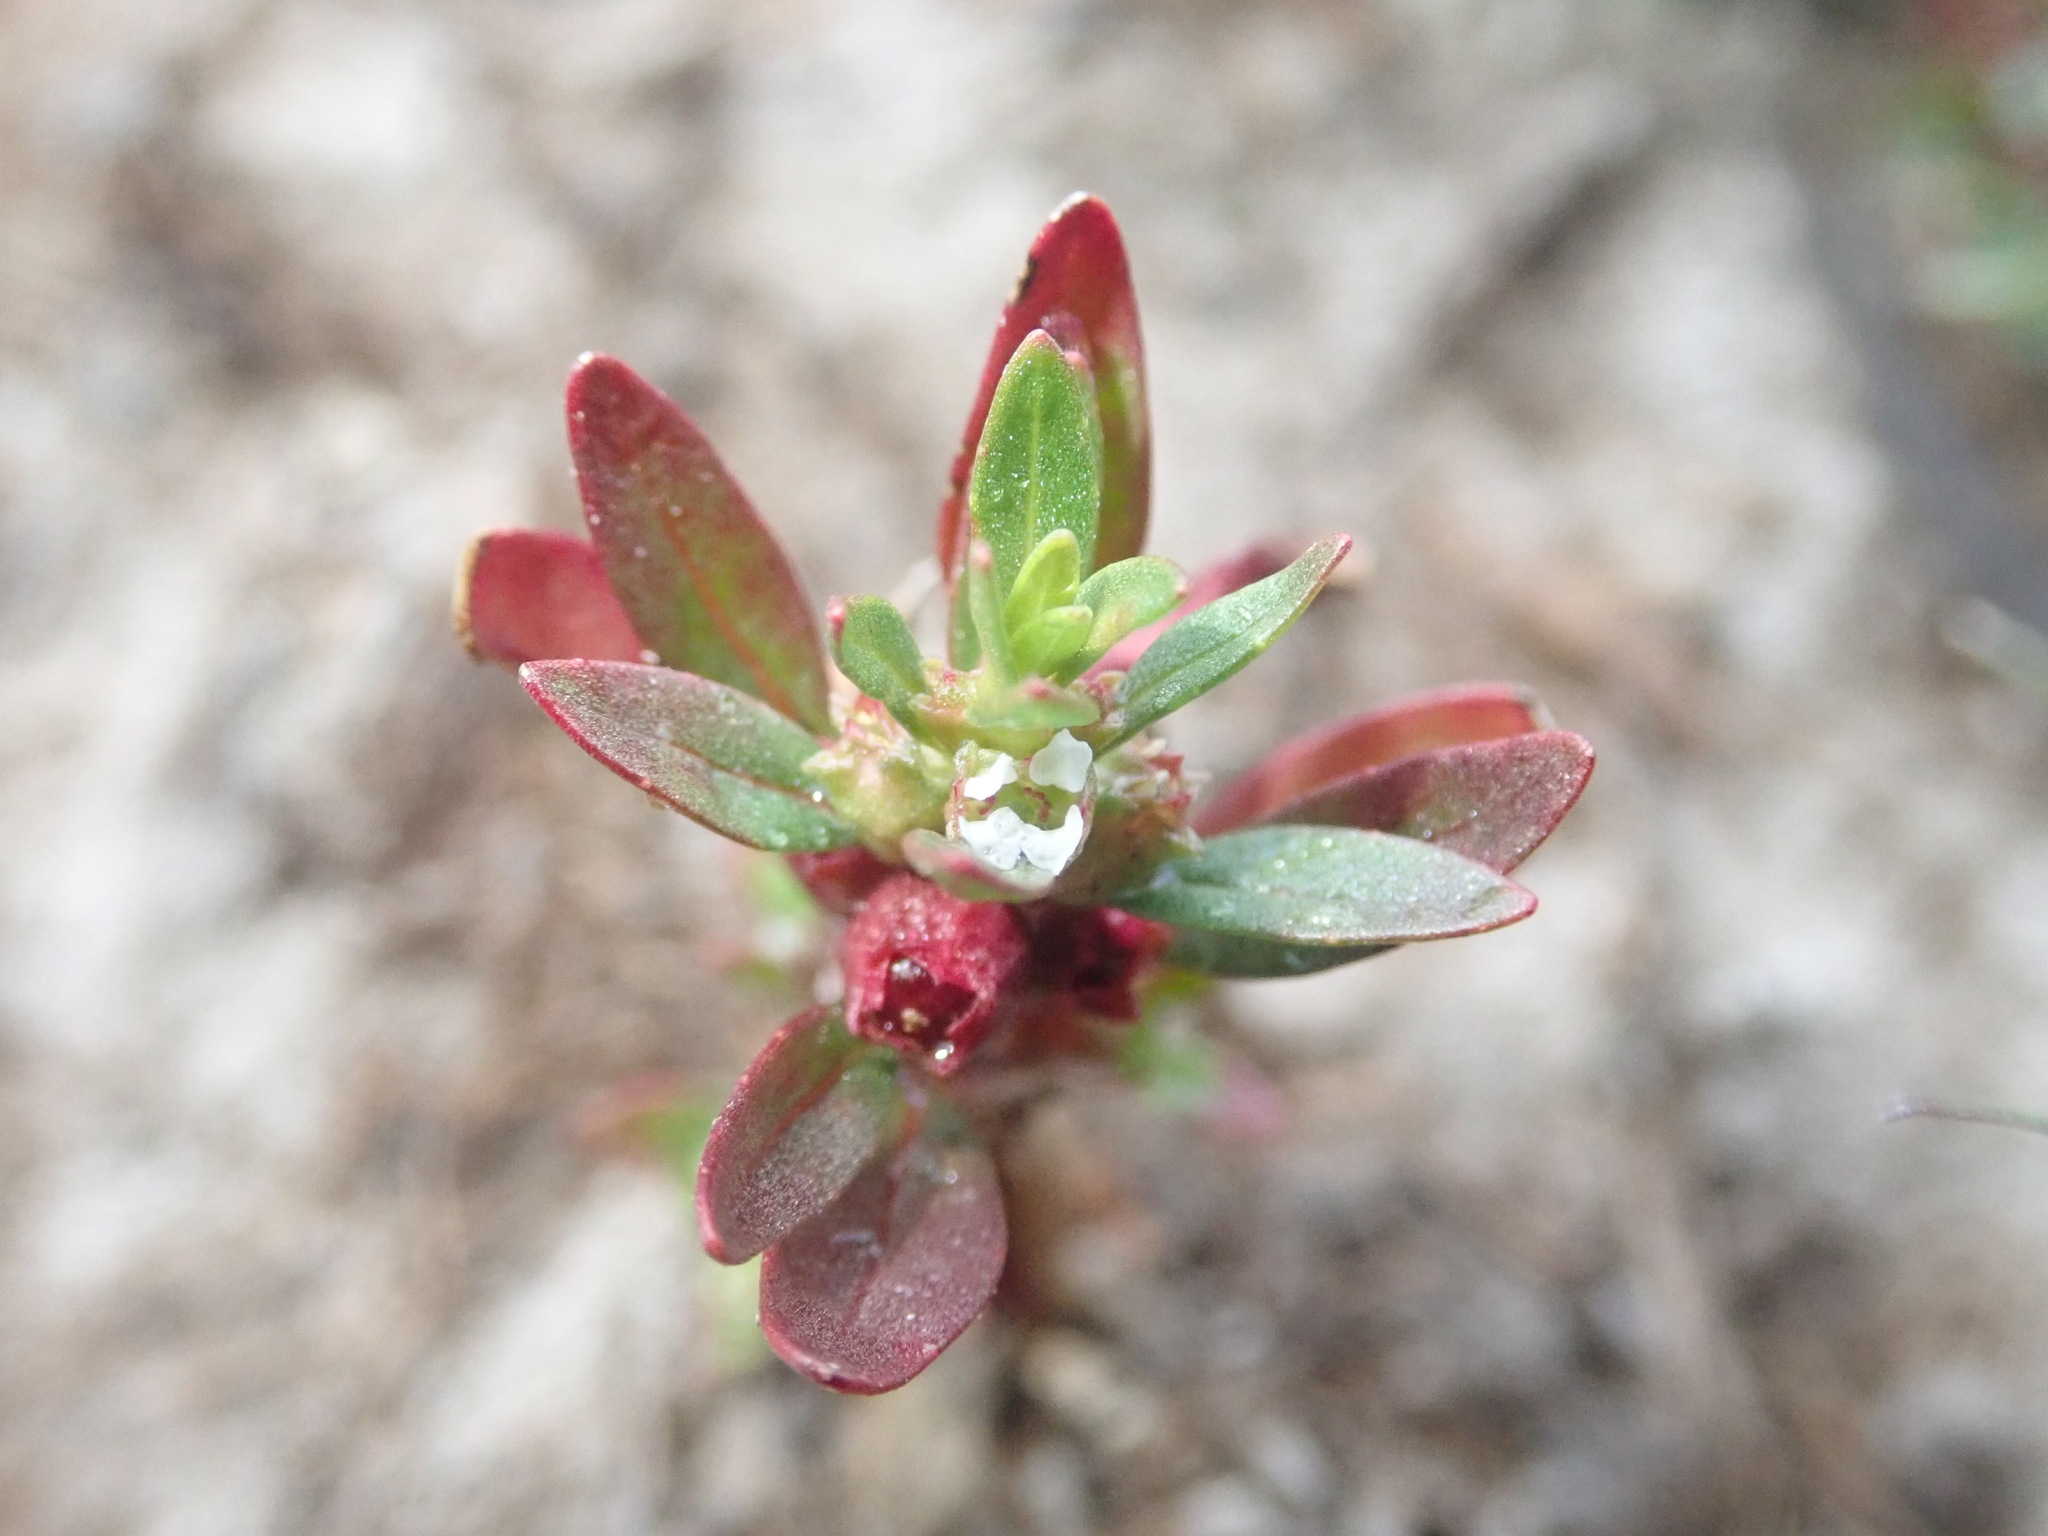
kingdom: Plantae
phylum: Tracheophyta
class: Magnoliopsida
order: Myrtales
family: Lythraceae
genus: Rotala
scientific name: Rotala ramosior
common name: Lowland rotala
